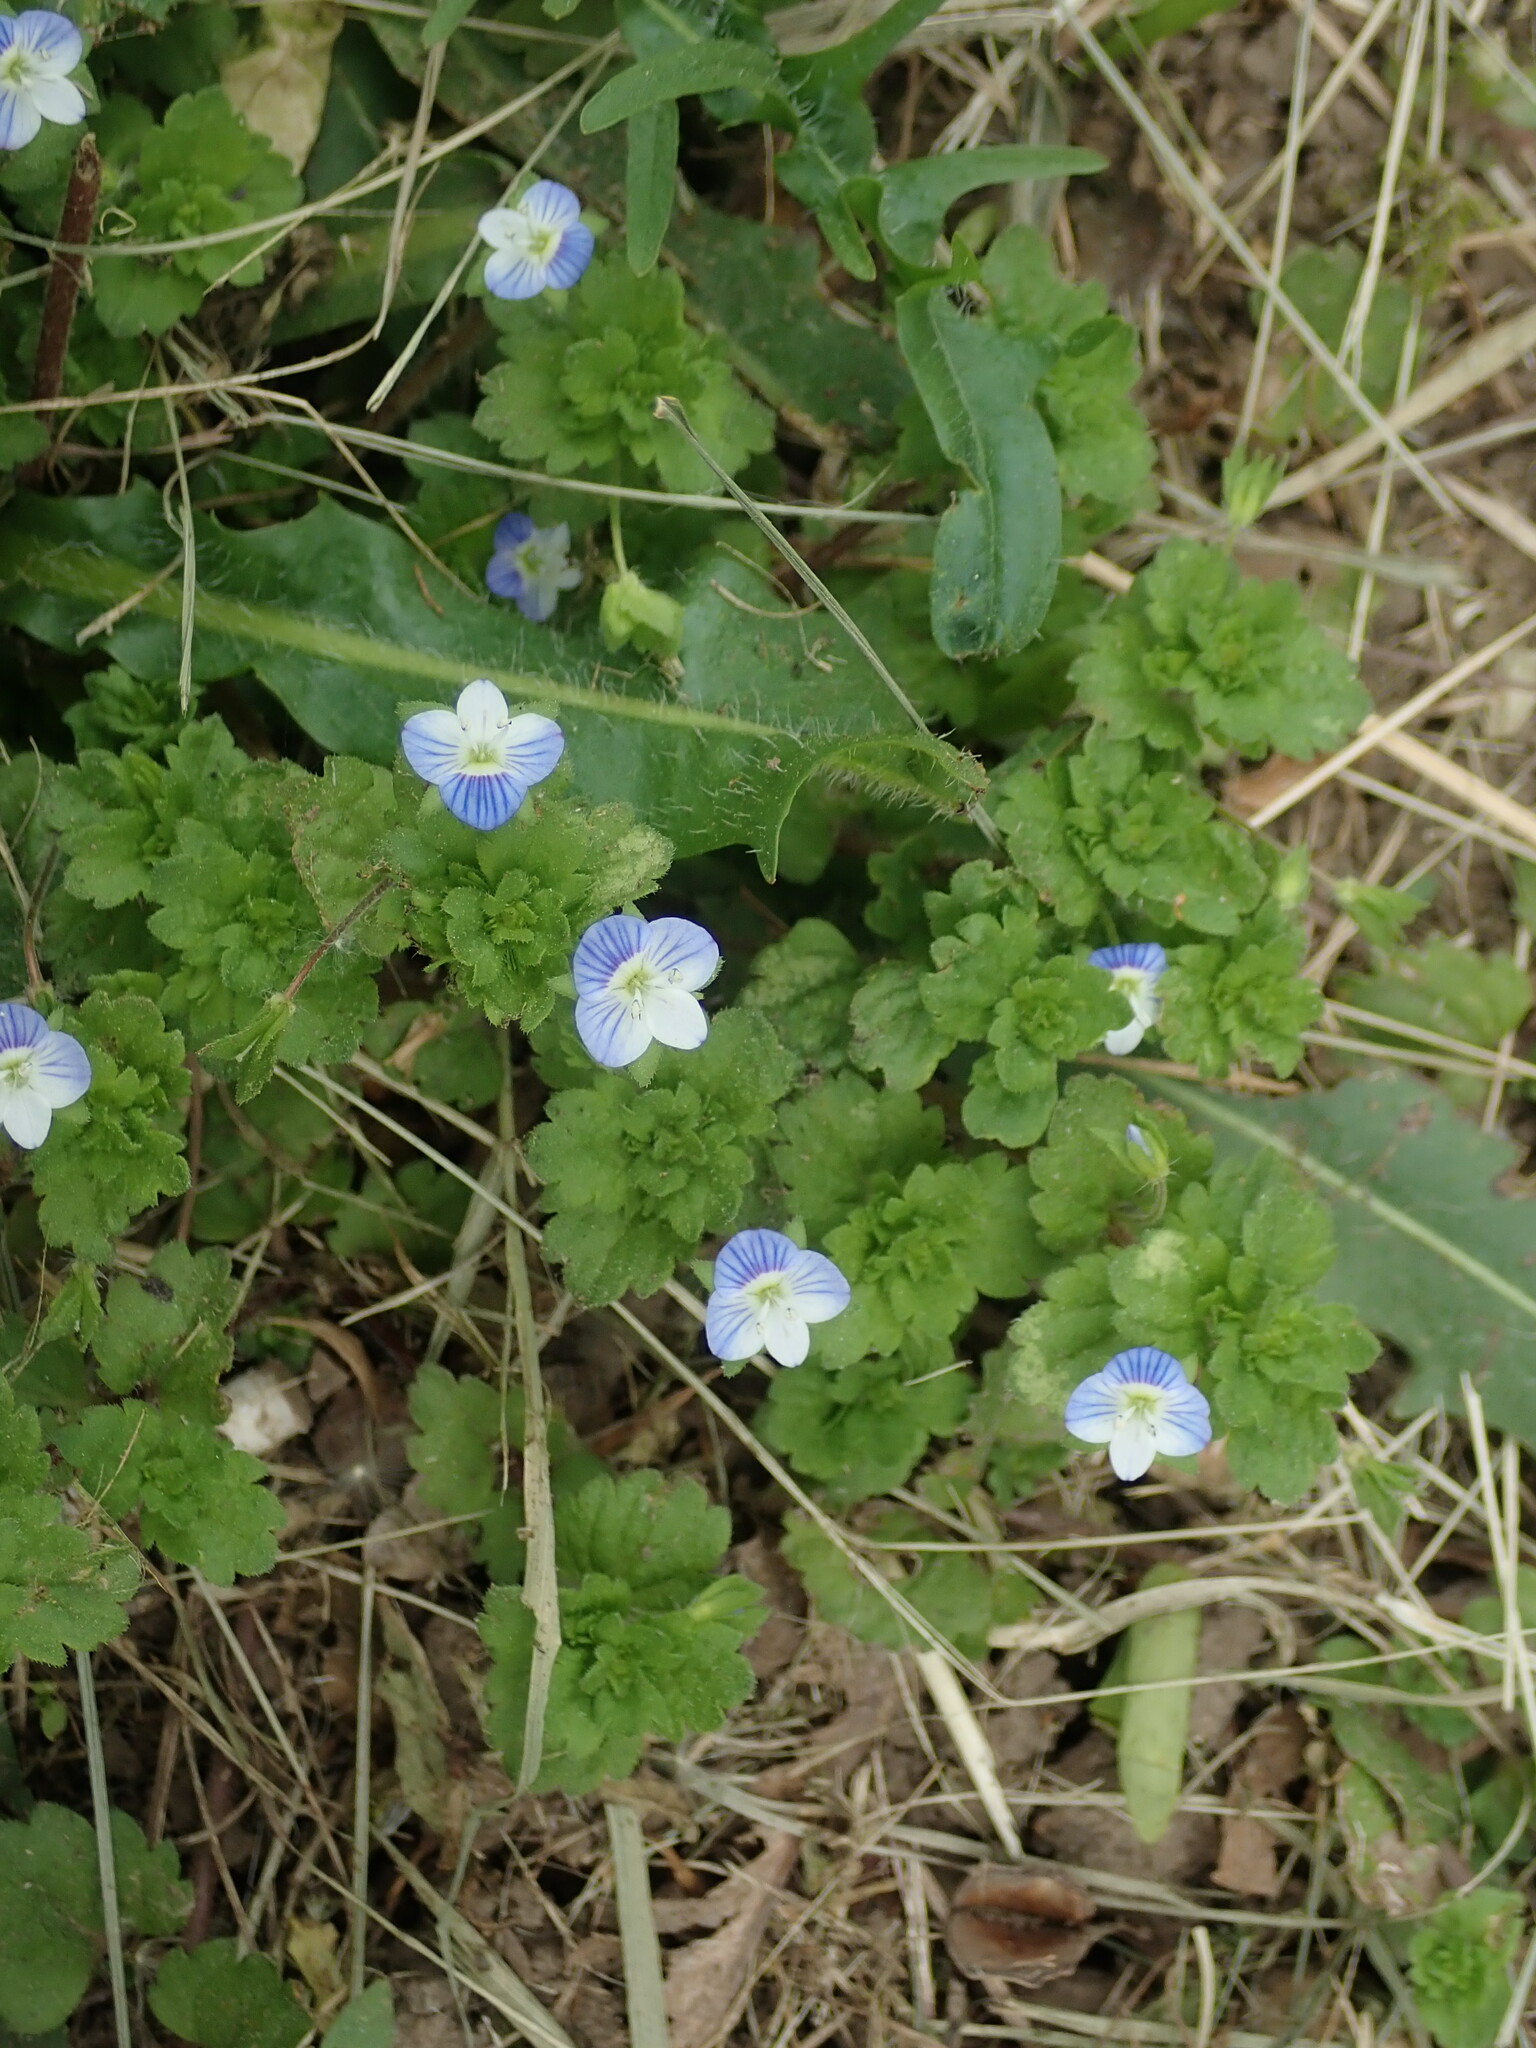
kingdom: Plantae
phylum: Tracheophyta
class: Magnoliopsida
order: Lamiales
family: Plantaginaceae
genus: Veronica
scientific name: Veronica persica
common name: Common field-speedwell
